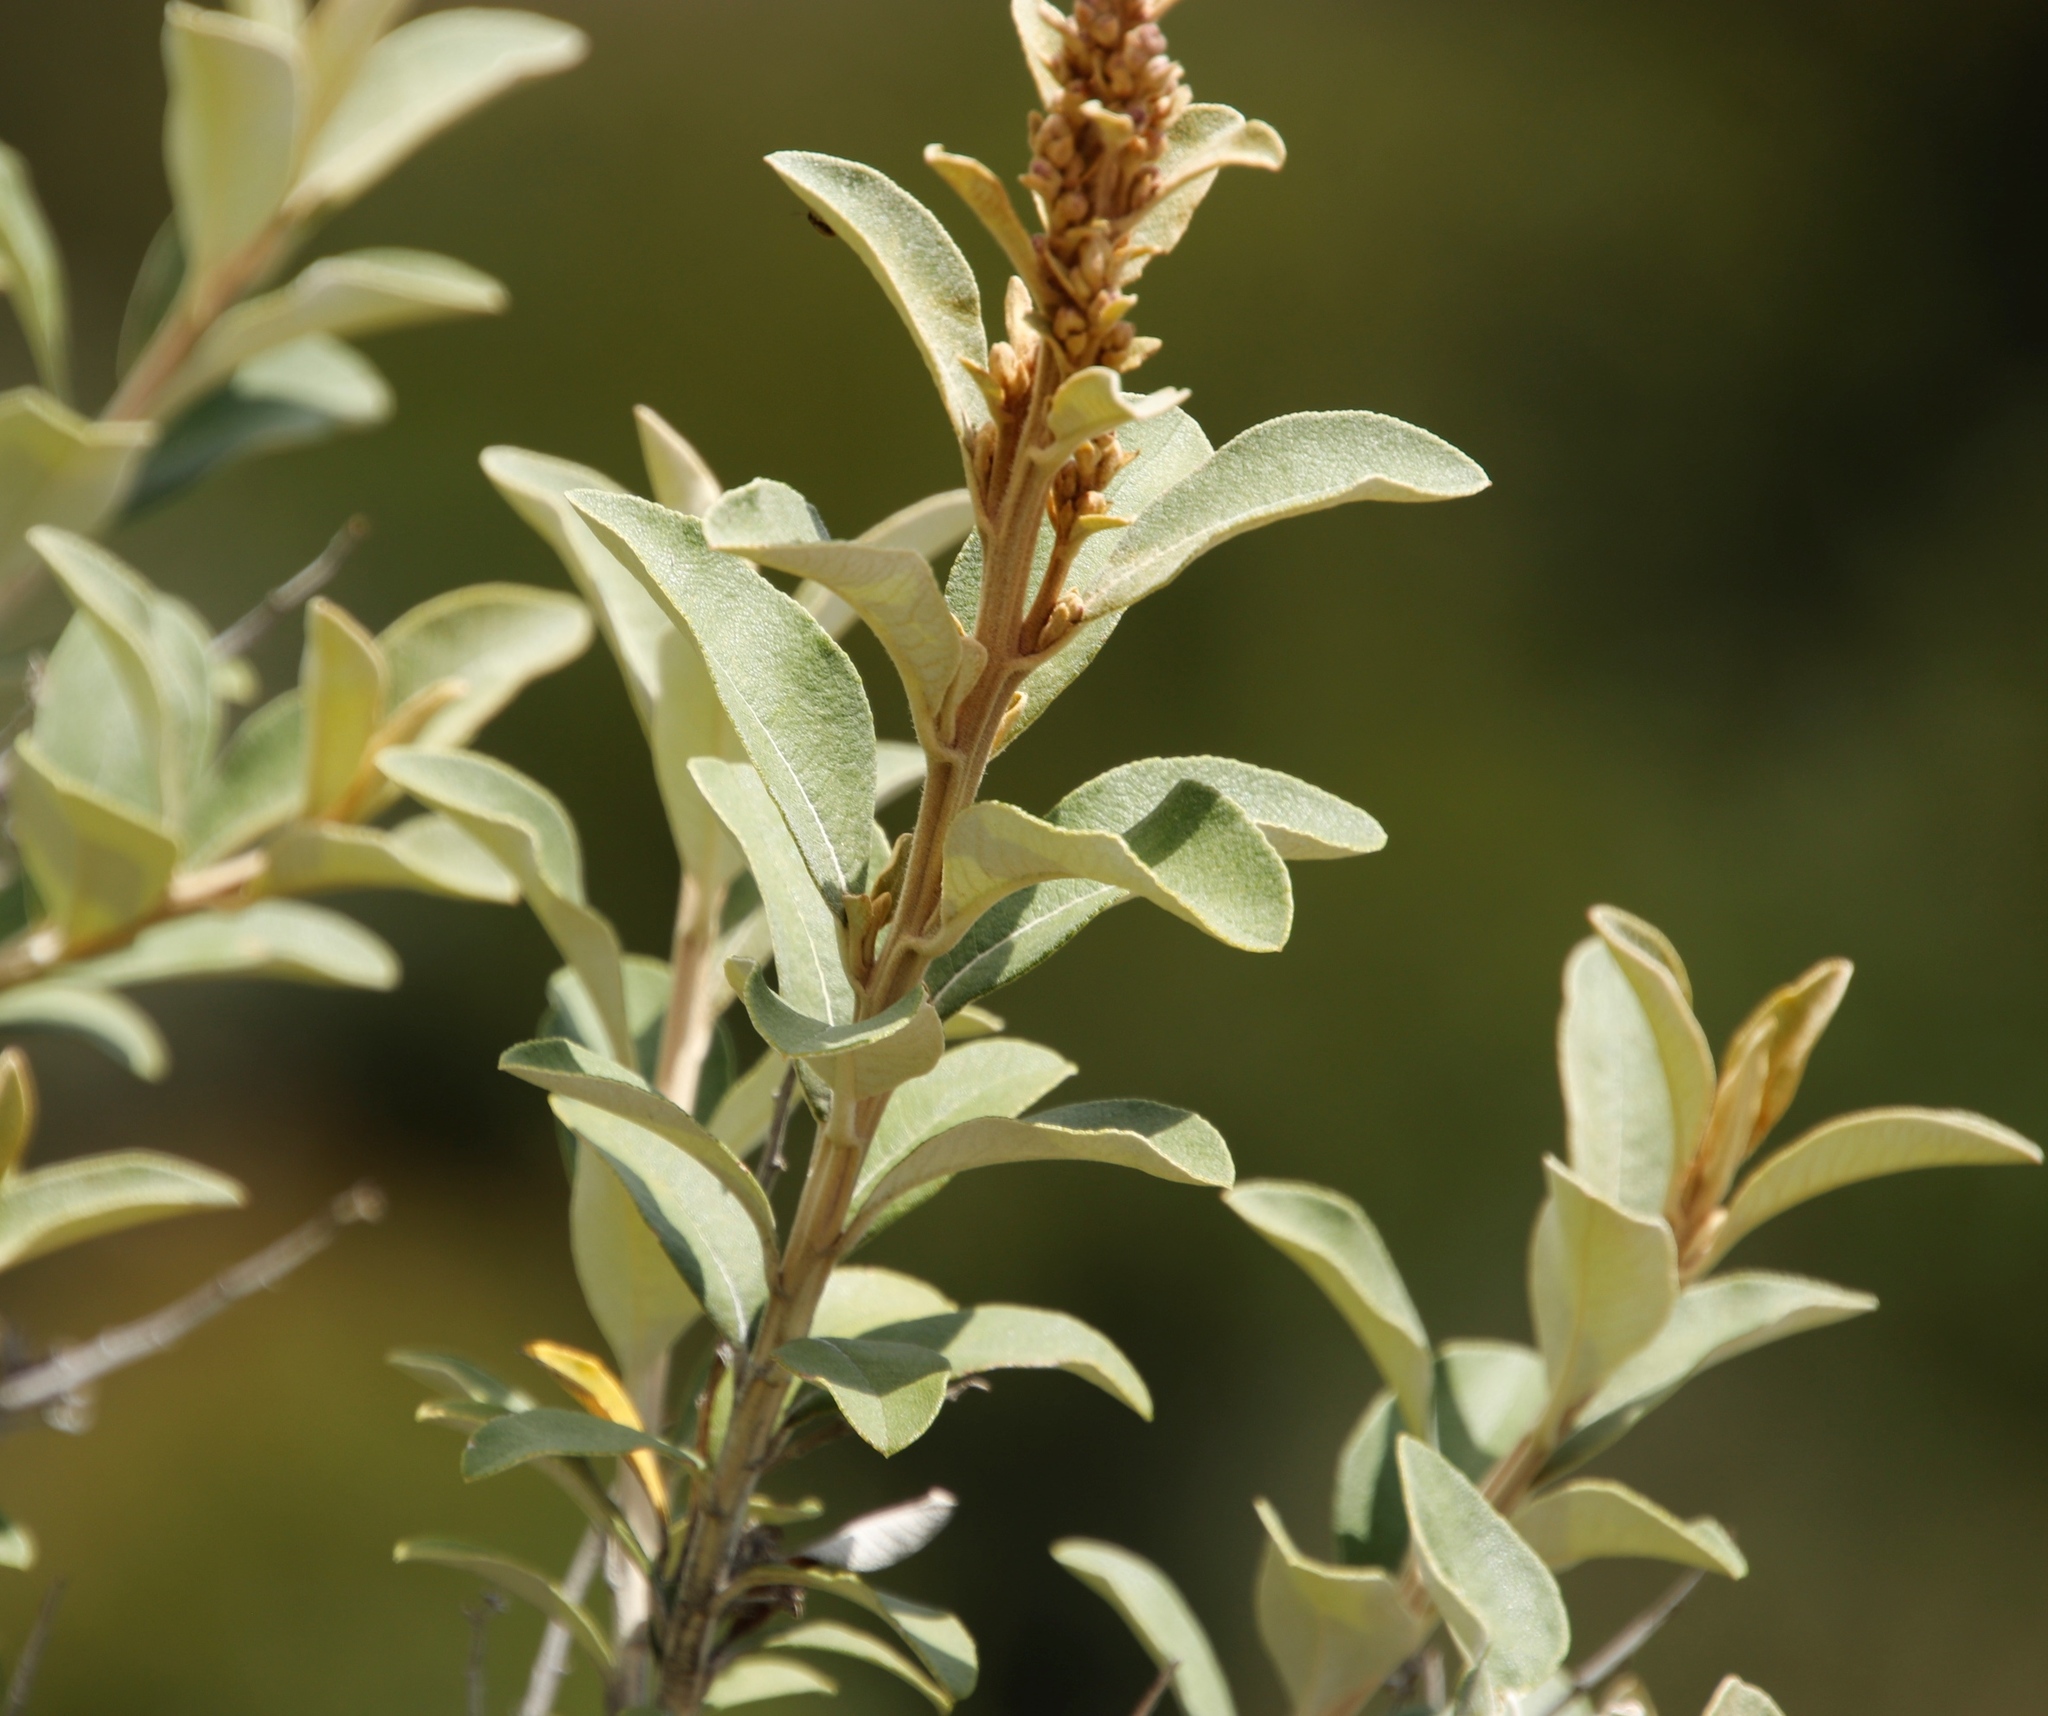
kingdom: Plantae
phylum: Tracheophyta
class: Magnoliopsida
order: Asterales
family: Asteraceae
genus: Tarchonanthus
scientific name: Tarchonanthus littoralis
